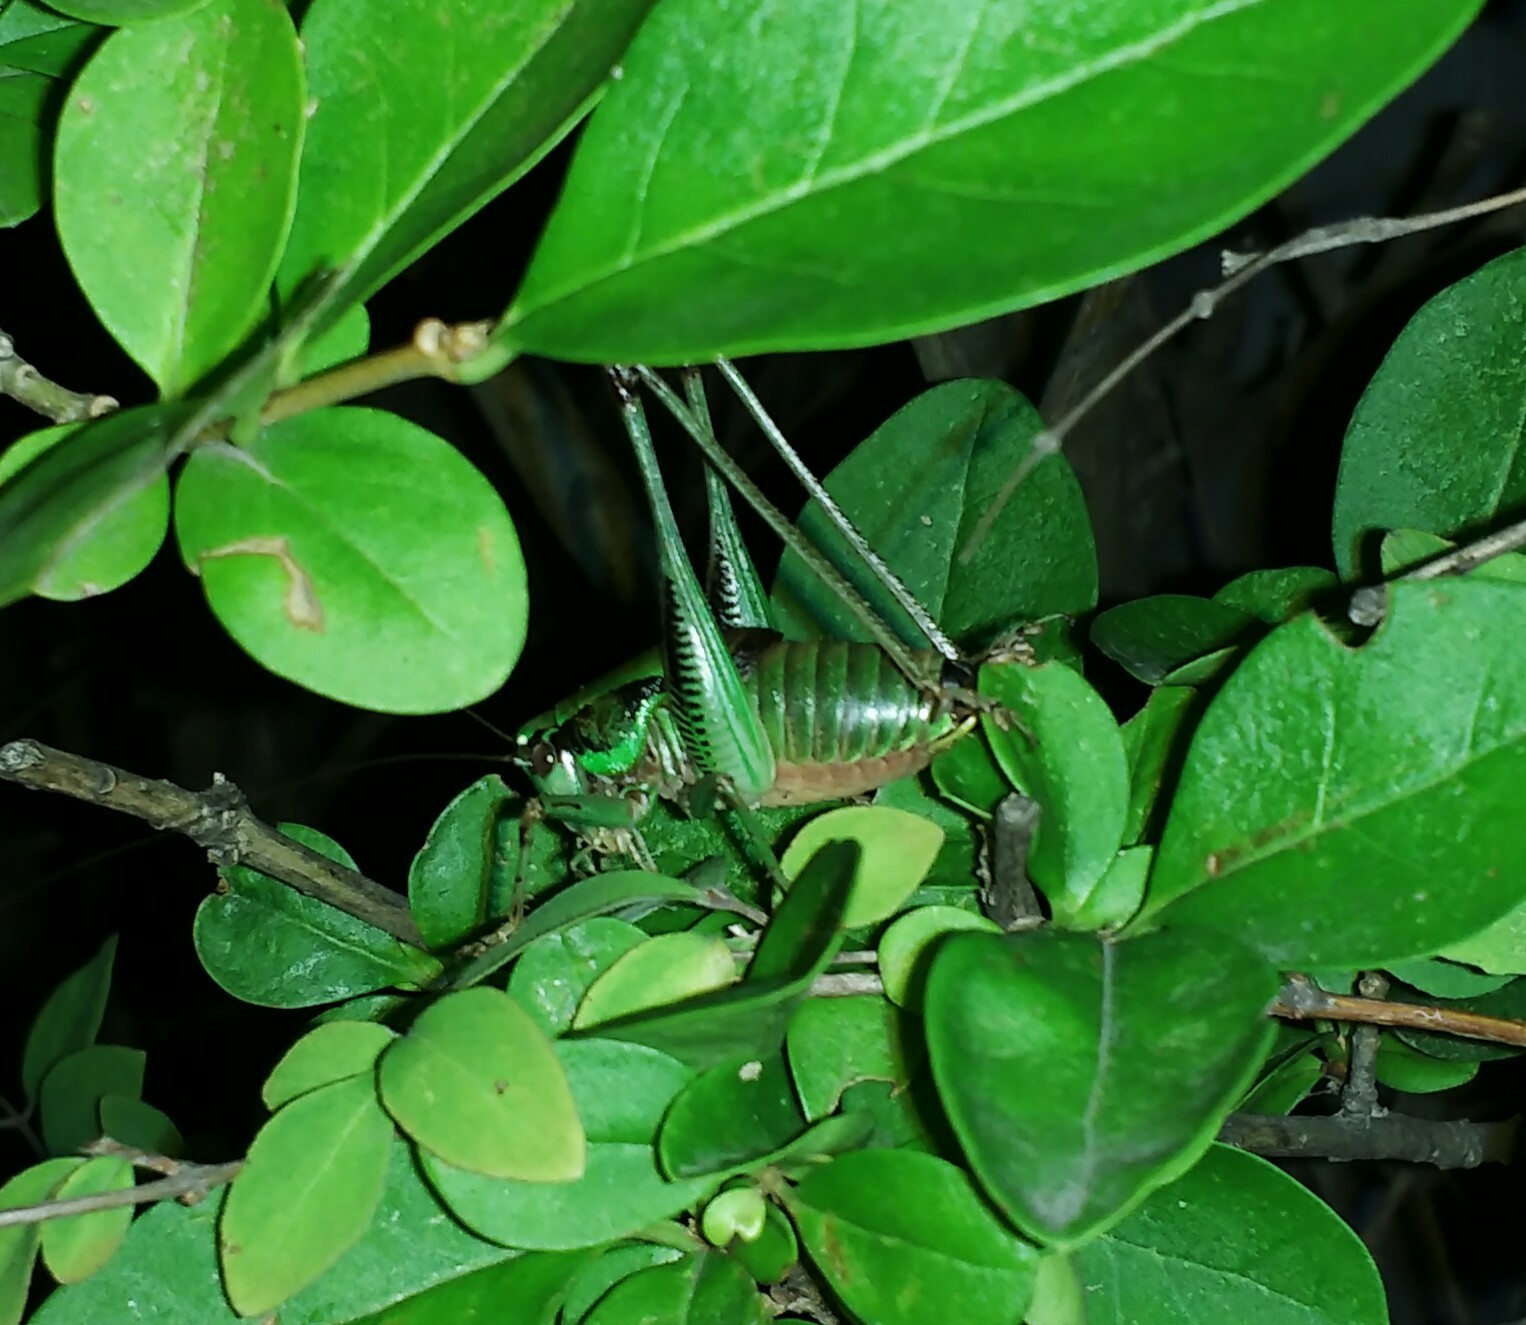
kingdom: Animalia
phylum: Arthropoda
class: Insecta
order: Orthoptera
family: Tettigoniidae
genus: Eupholidoptera
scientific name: Eupholidoptera schmidti
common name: Schmidt's marbled bush-cricket
